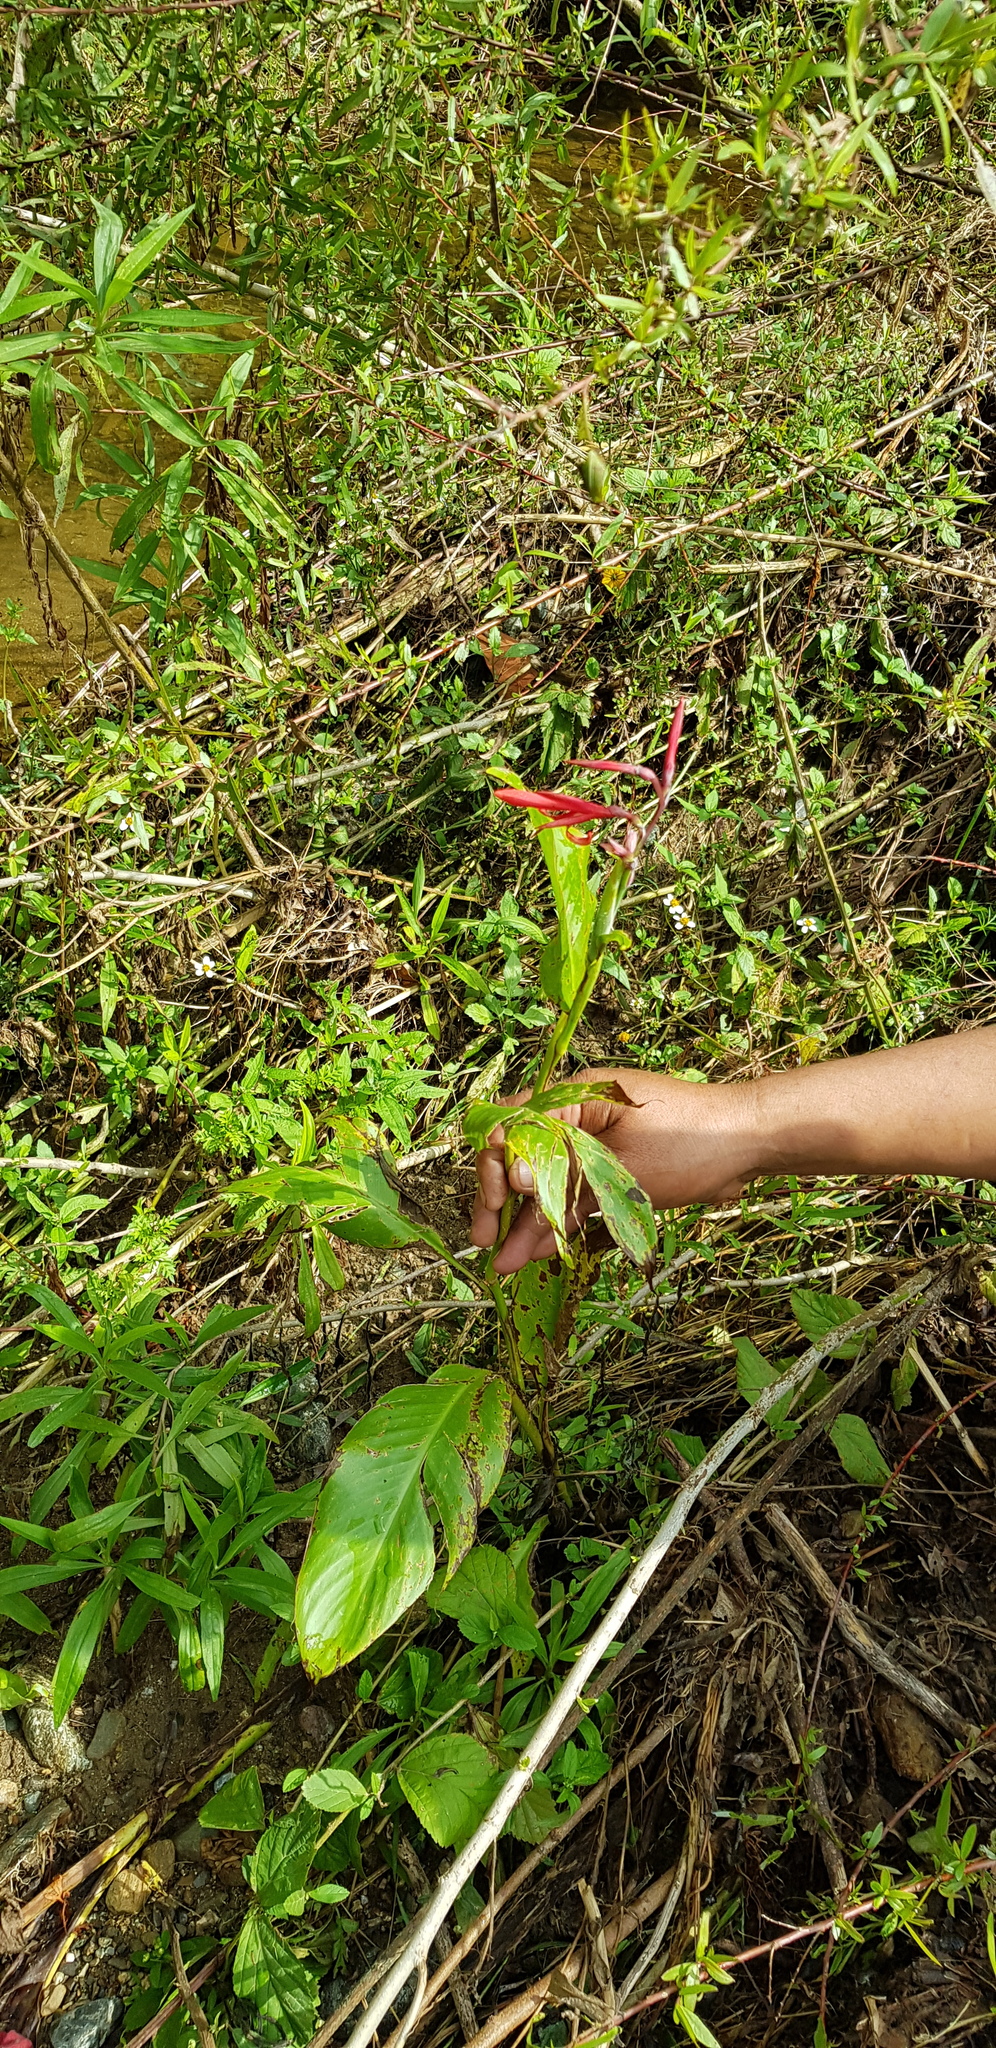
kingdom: Plantae
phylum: Tracheophyta
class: Liliopsida
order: Zingiberales
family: Cannaceae
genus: Canna
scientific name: Canna indica
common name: Indian shot
